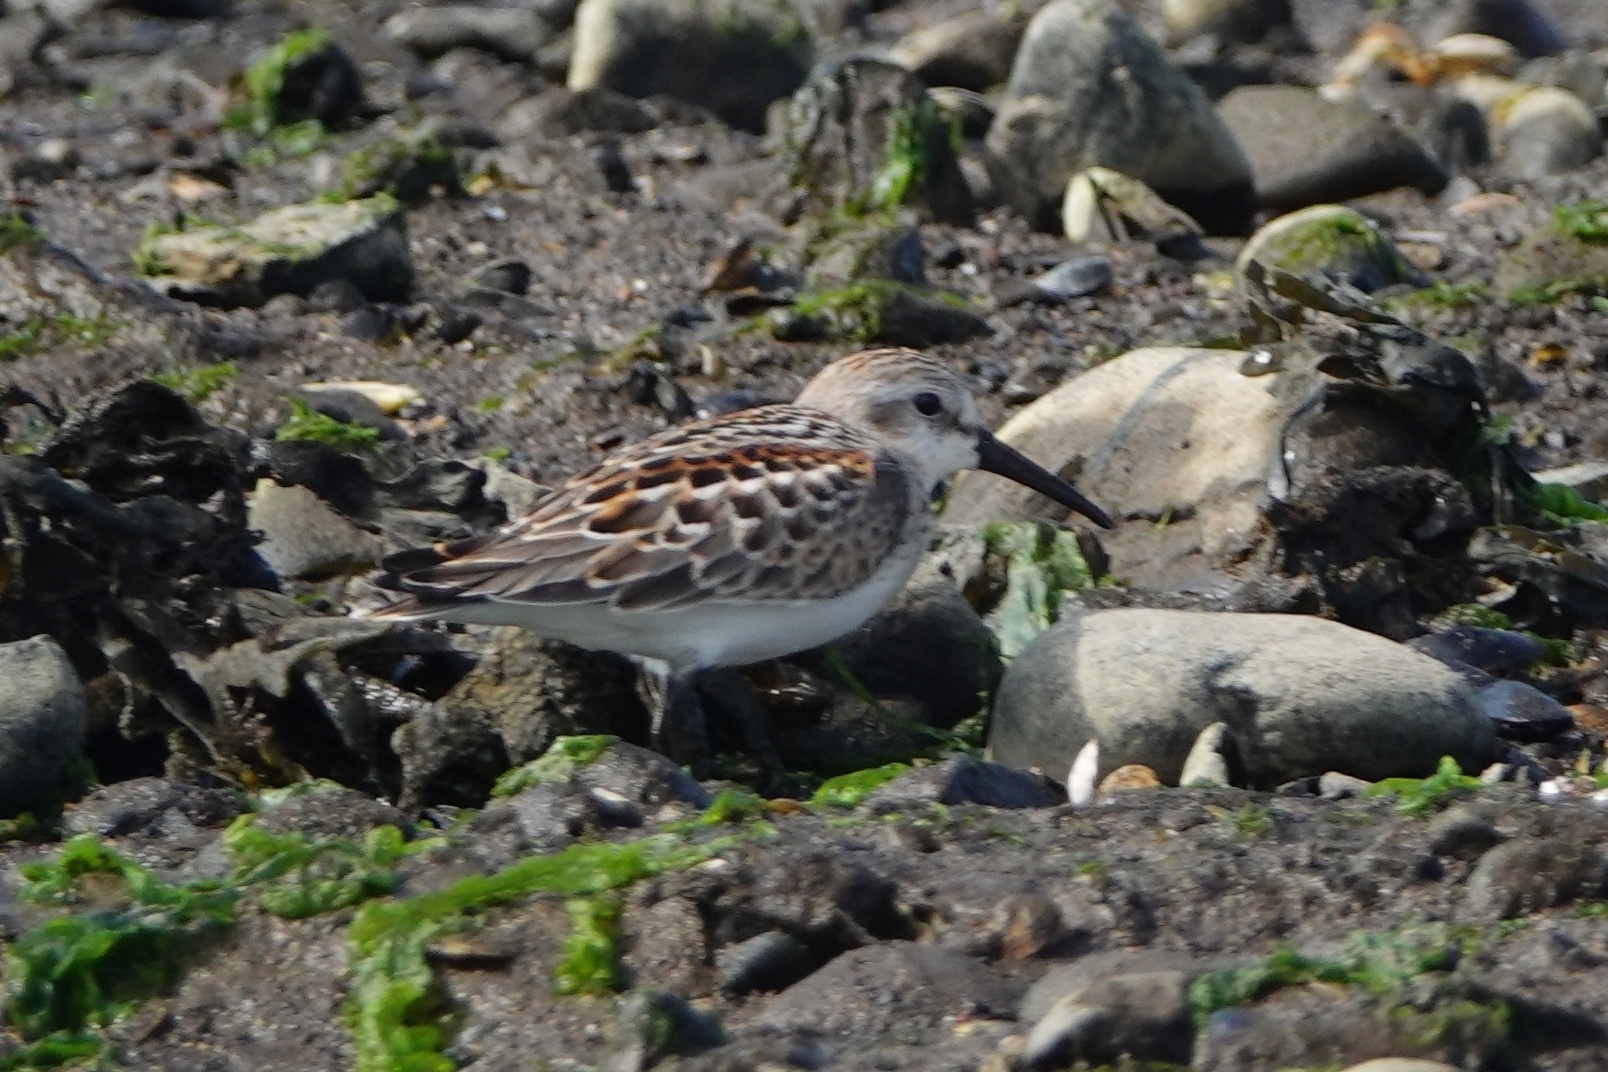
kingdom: Animalia
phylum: Chordata
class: Aves
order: Charadriiformes
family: Scolopacidae
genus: Calidris
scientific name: Calidris mauri
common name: Western sandpiper
